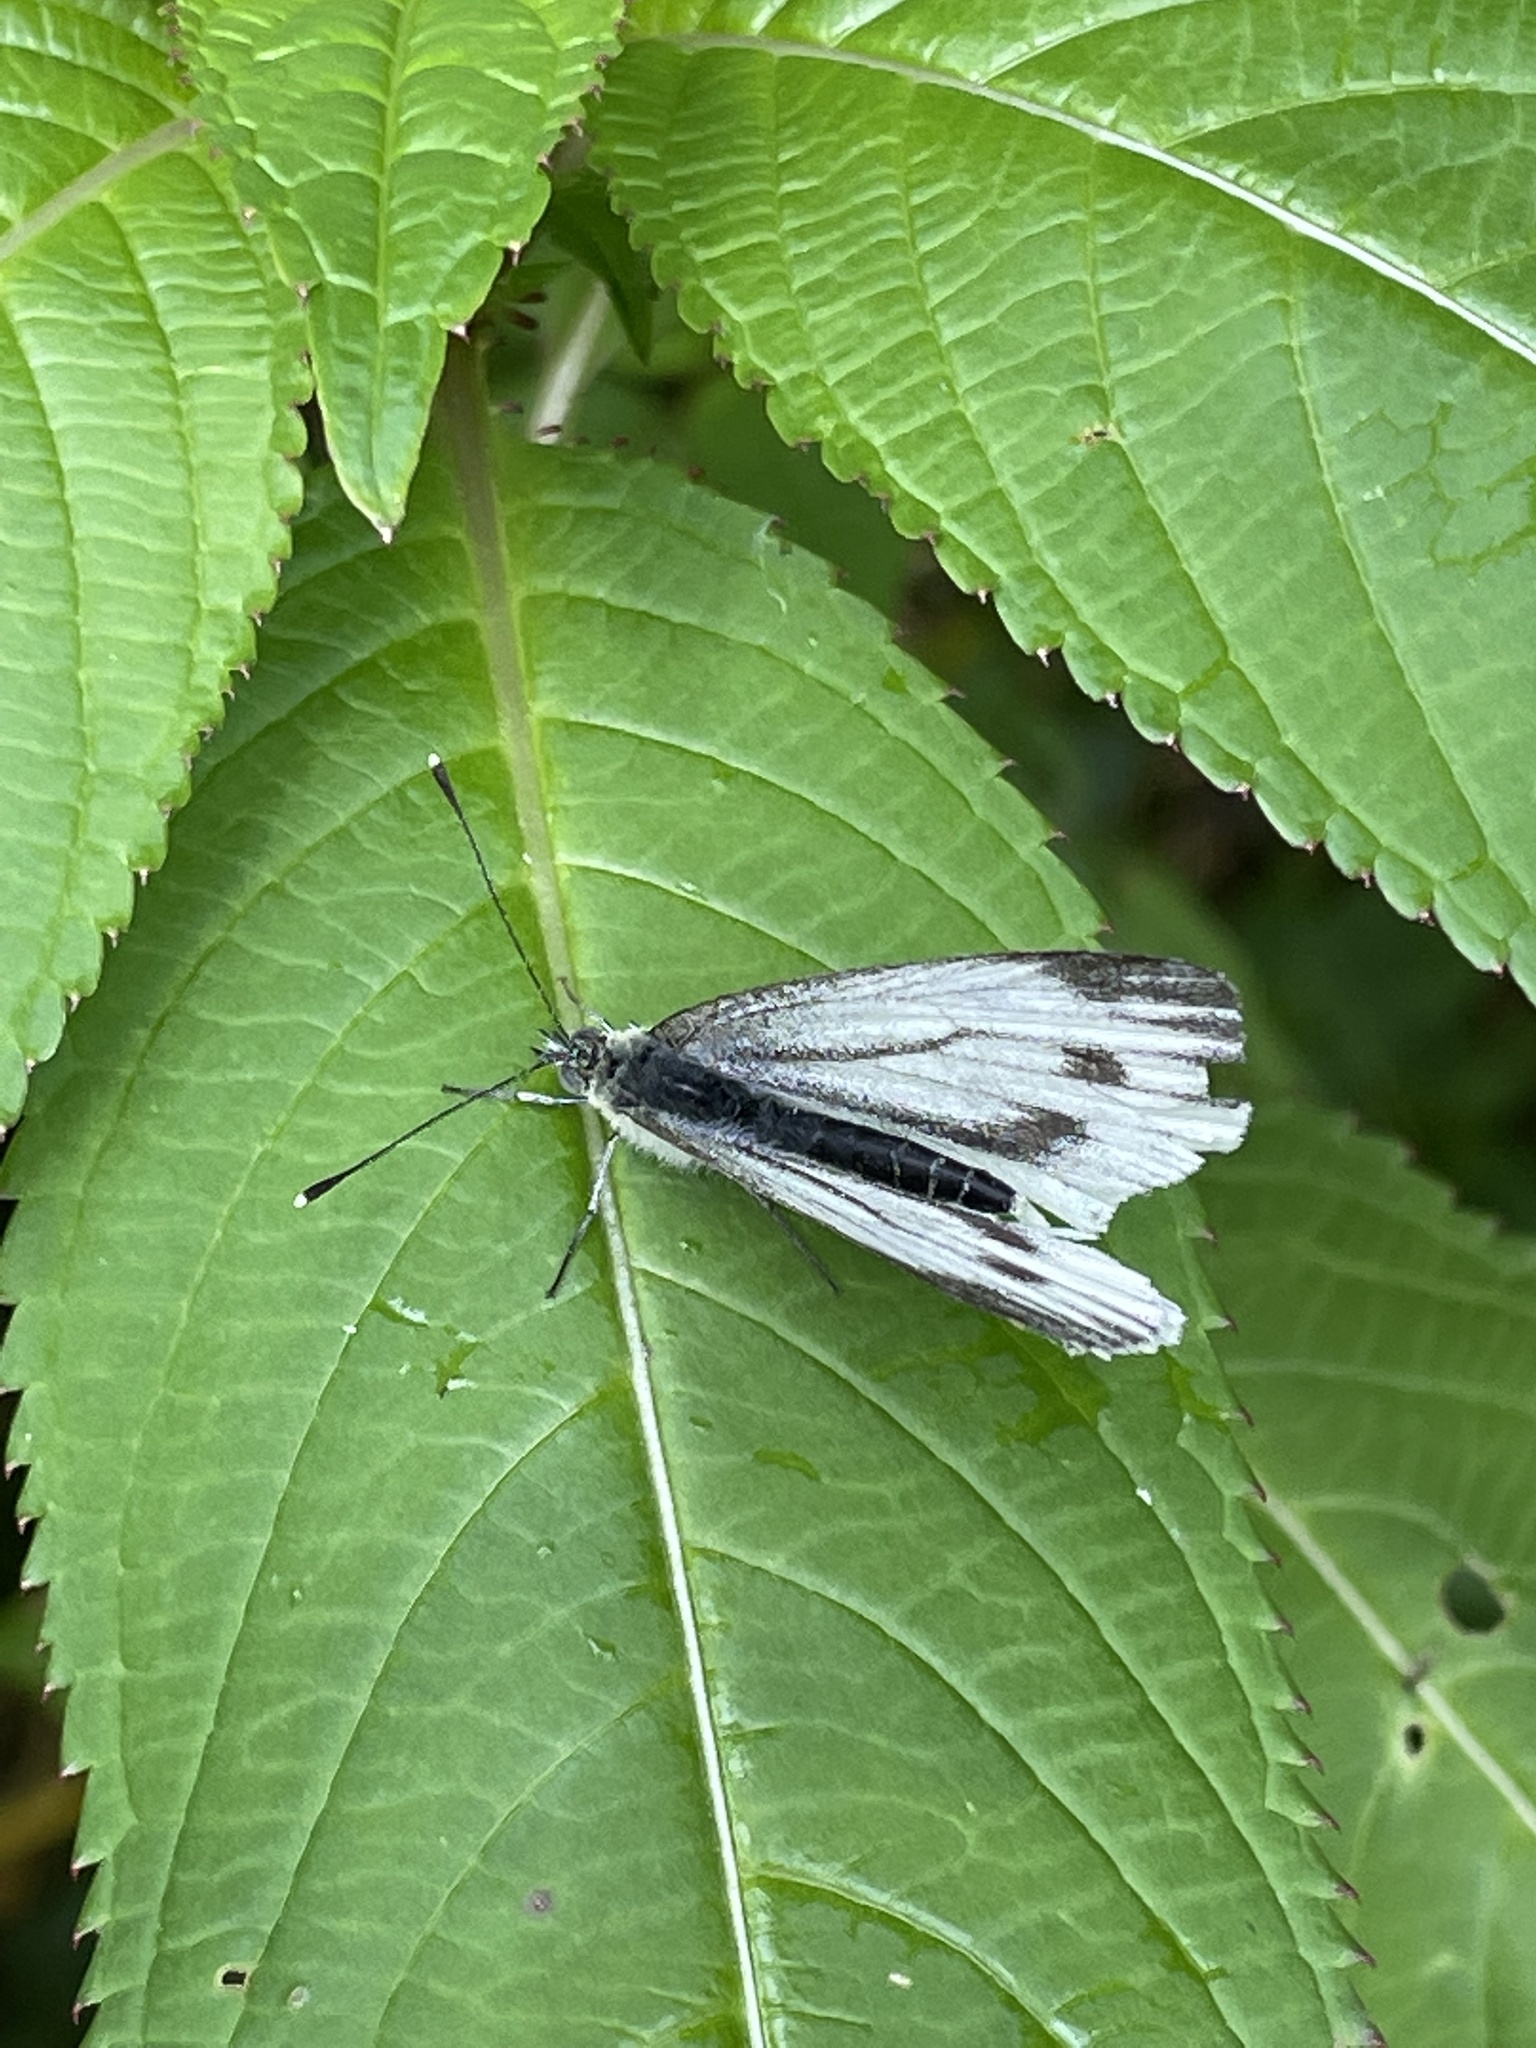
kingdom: Animalia
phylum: Arthropoda
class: Insecta
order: Lepidoptera
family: Pieridae
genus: Pieris
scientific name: Pieris napi
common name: Green-veined white
